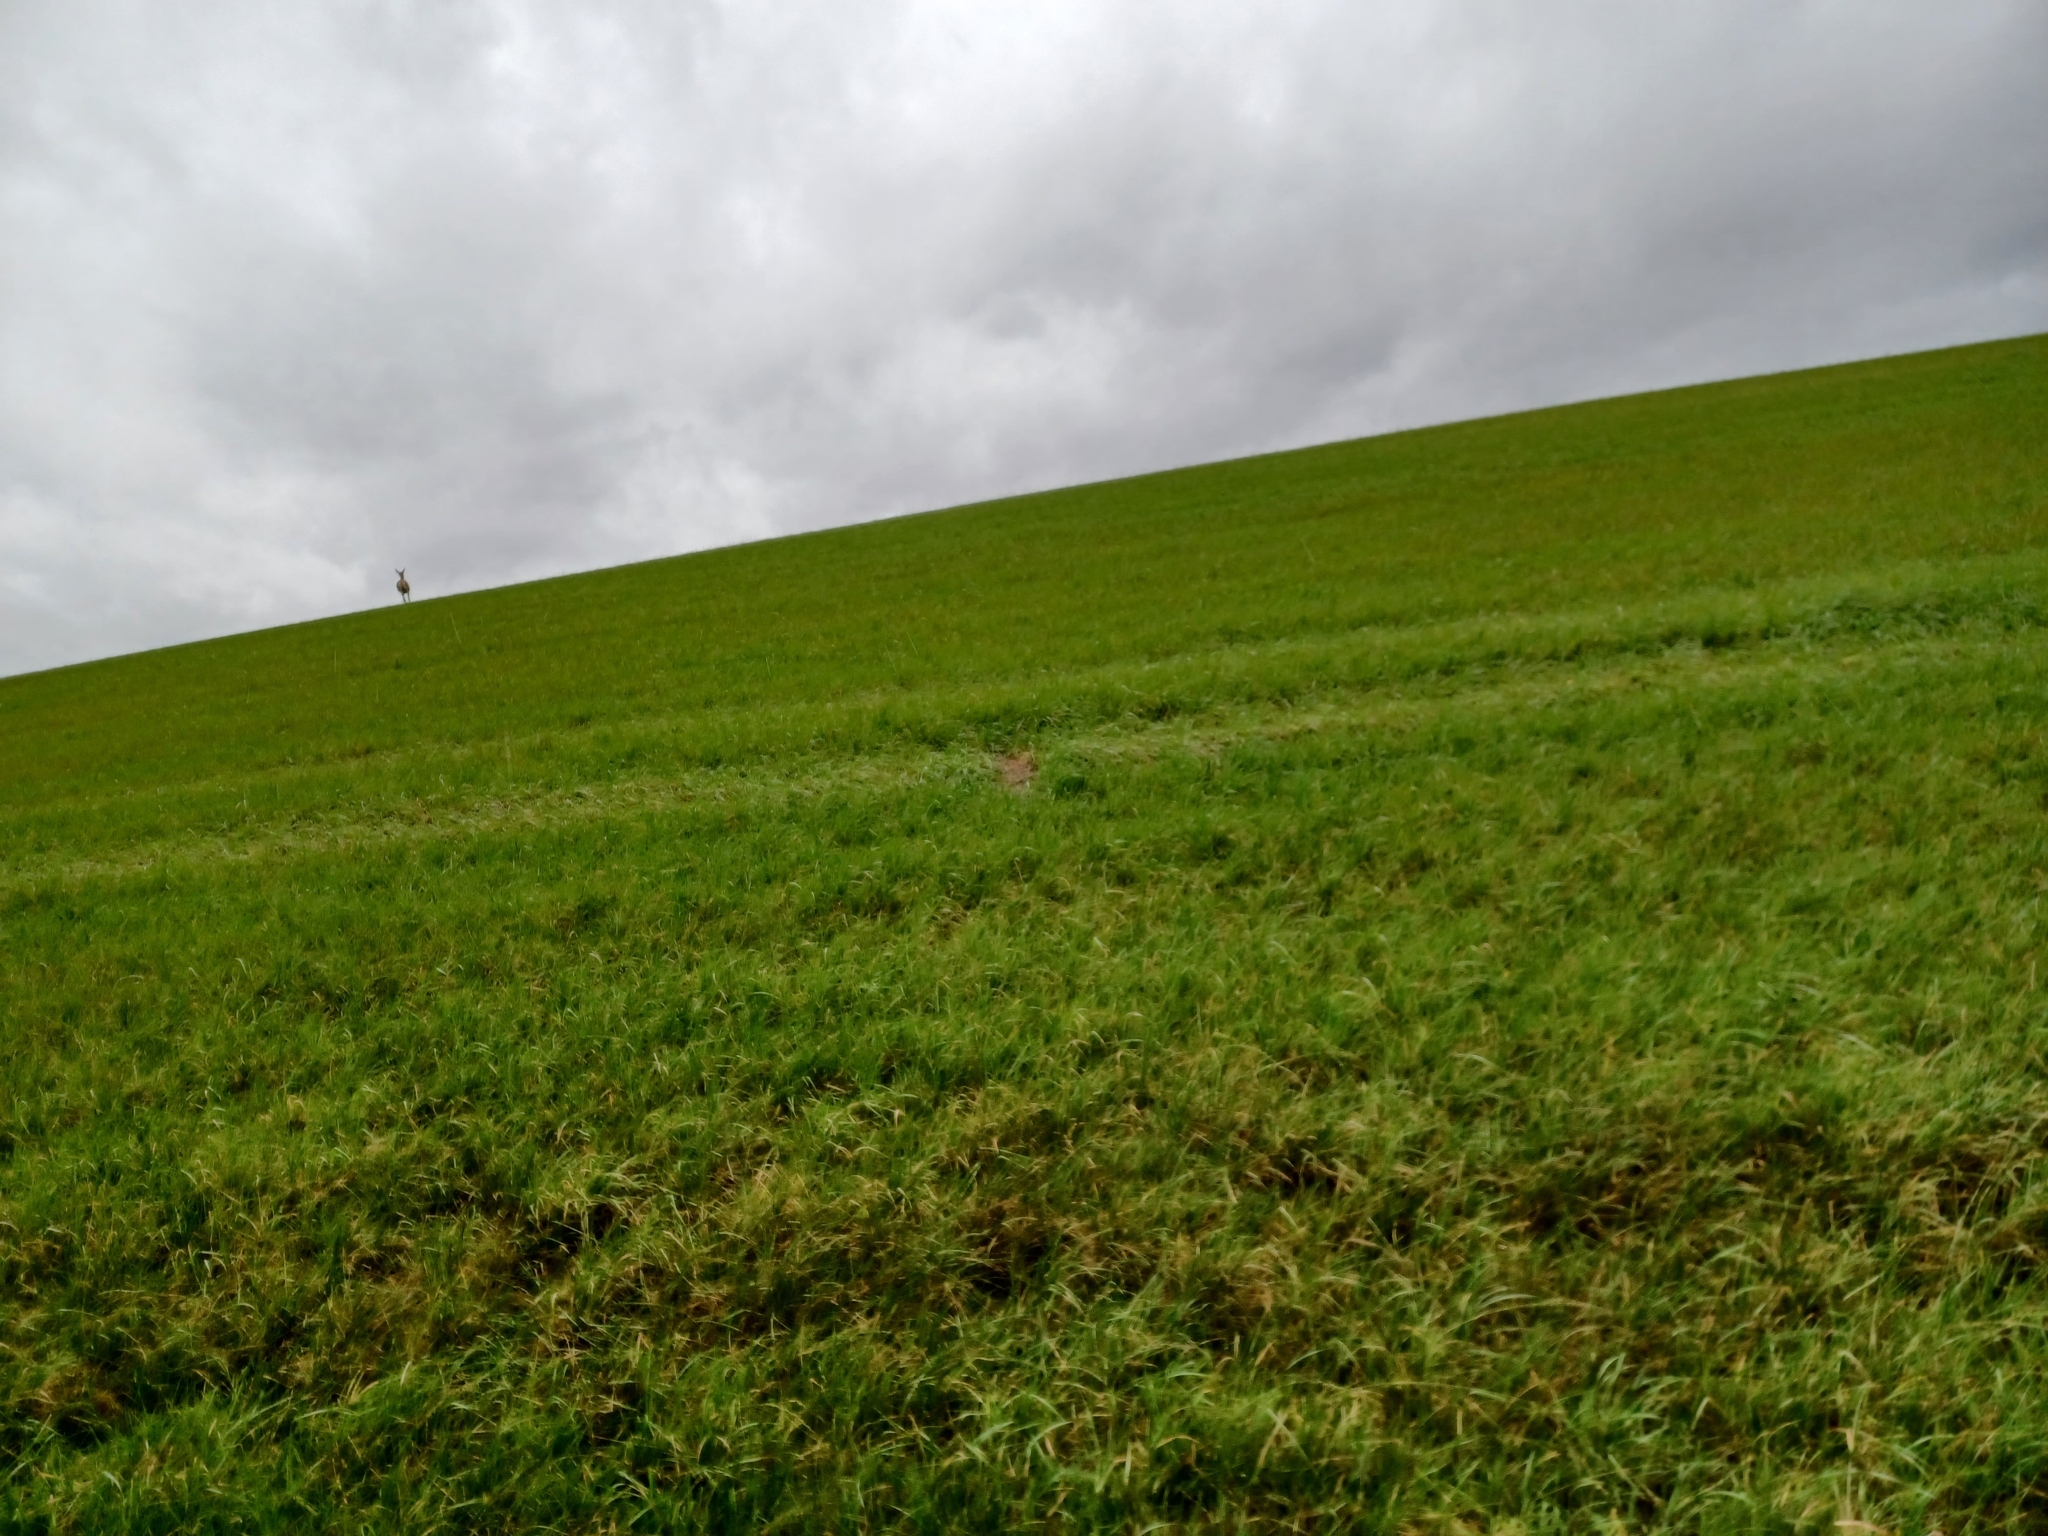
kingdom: Animalia
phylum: Chordata
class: Mammalia
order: Artiodactyla
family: Cervidae
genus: Cervus
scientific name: Cervus elaphus
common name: Red deer
